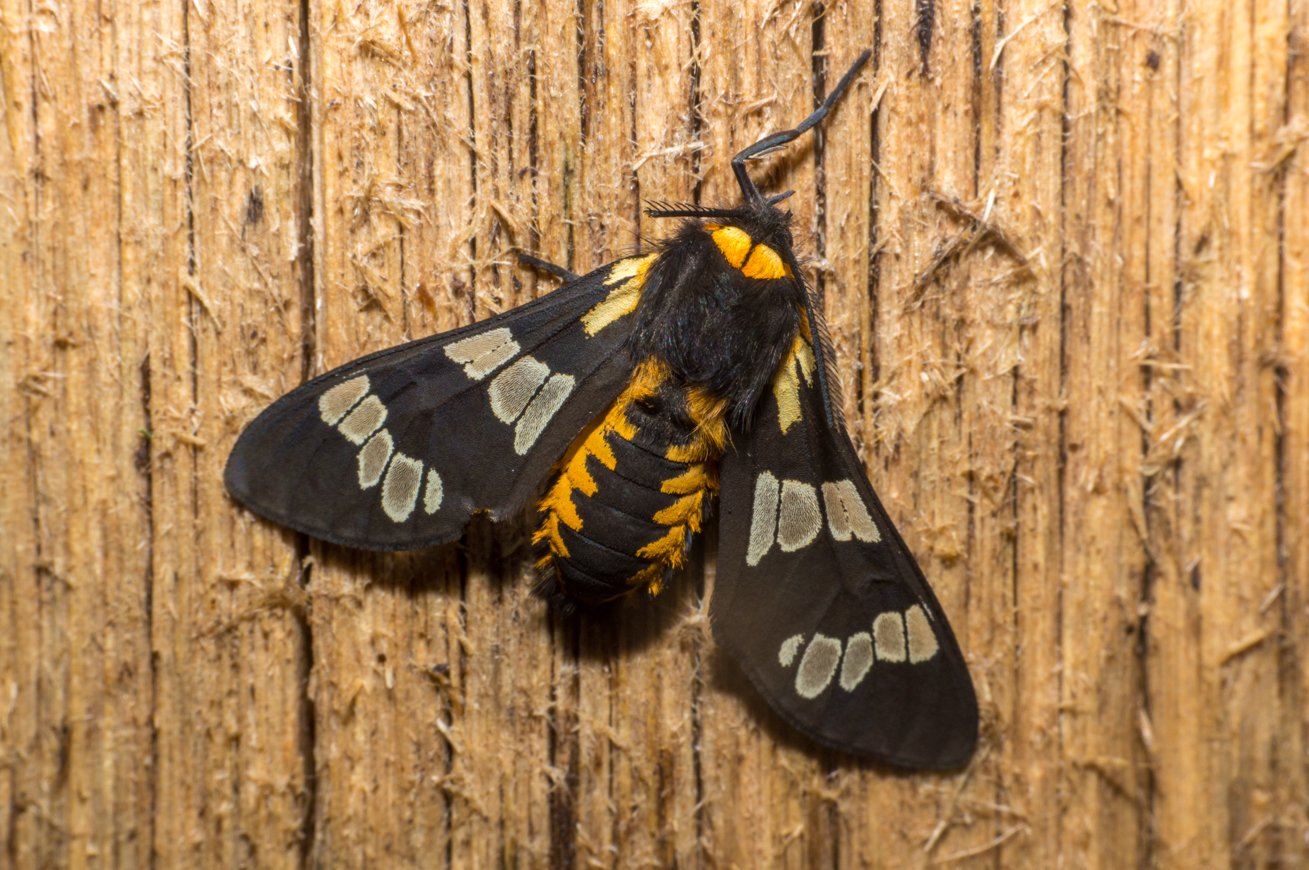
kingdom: Animalia
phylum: Arthropoda
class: Insecta
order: Lepidoptera
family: Erebidae
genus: Eurata
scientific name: Eurata
